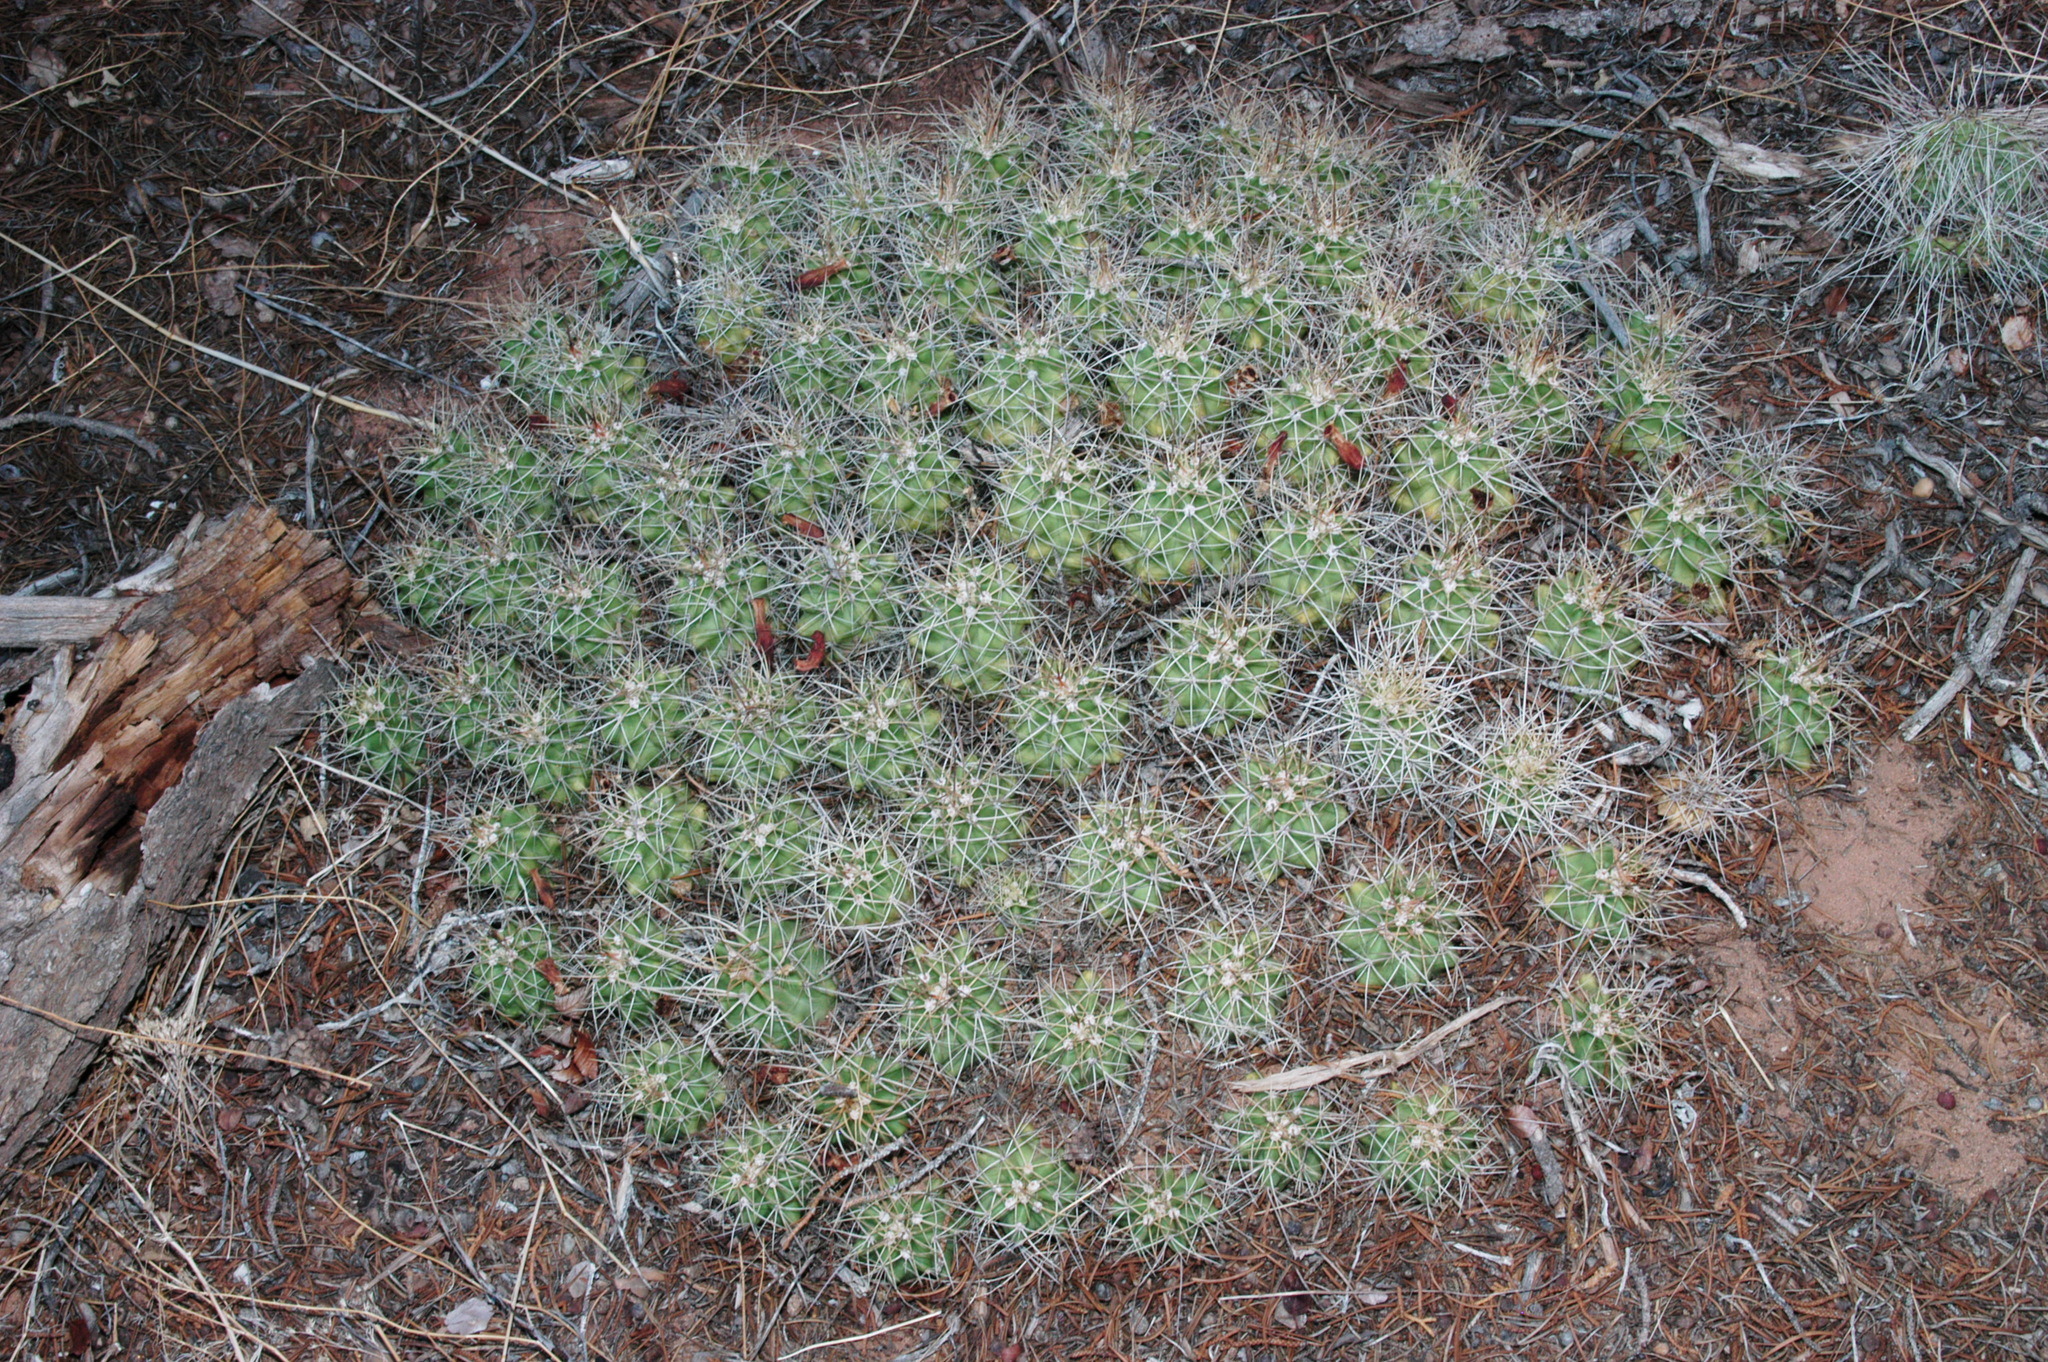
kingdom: Plantae
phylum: Tracheophyta
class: Magnoliopsida
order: Caryophyllales
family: Cactaceae
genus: Echinocereus
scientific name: Echinocereus triglochidiatus
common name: Claretcup hedgehog
